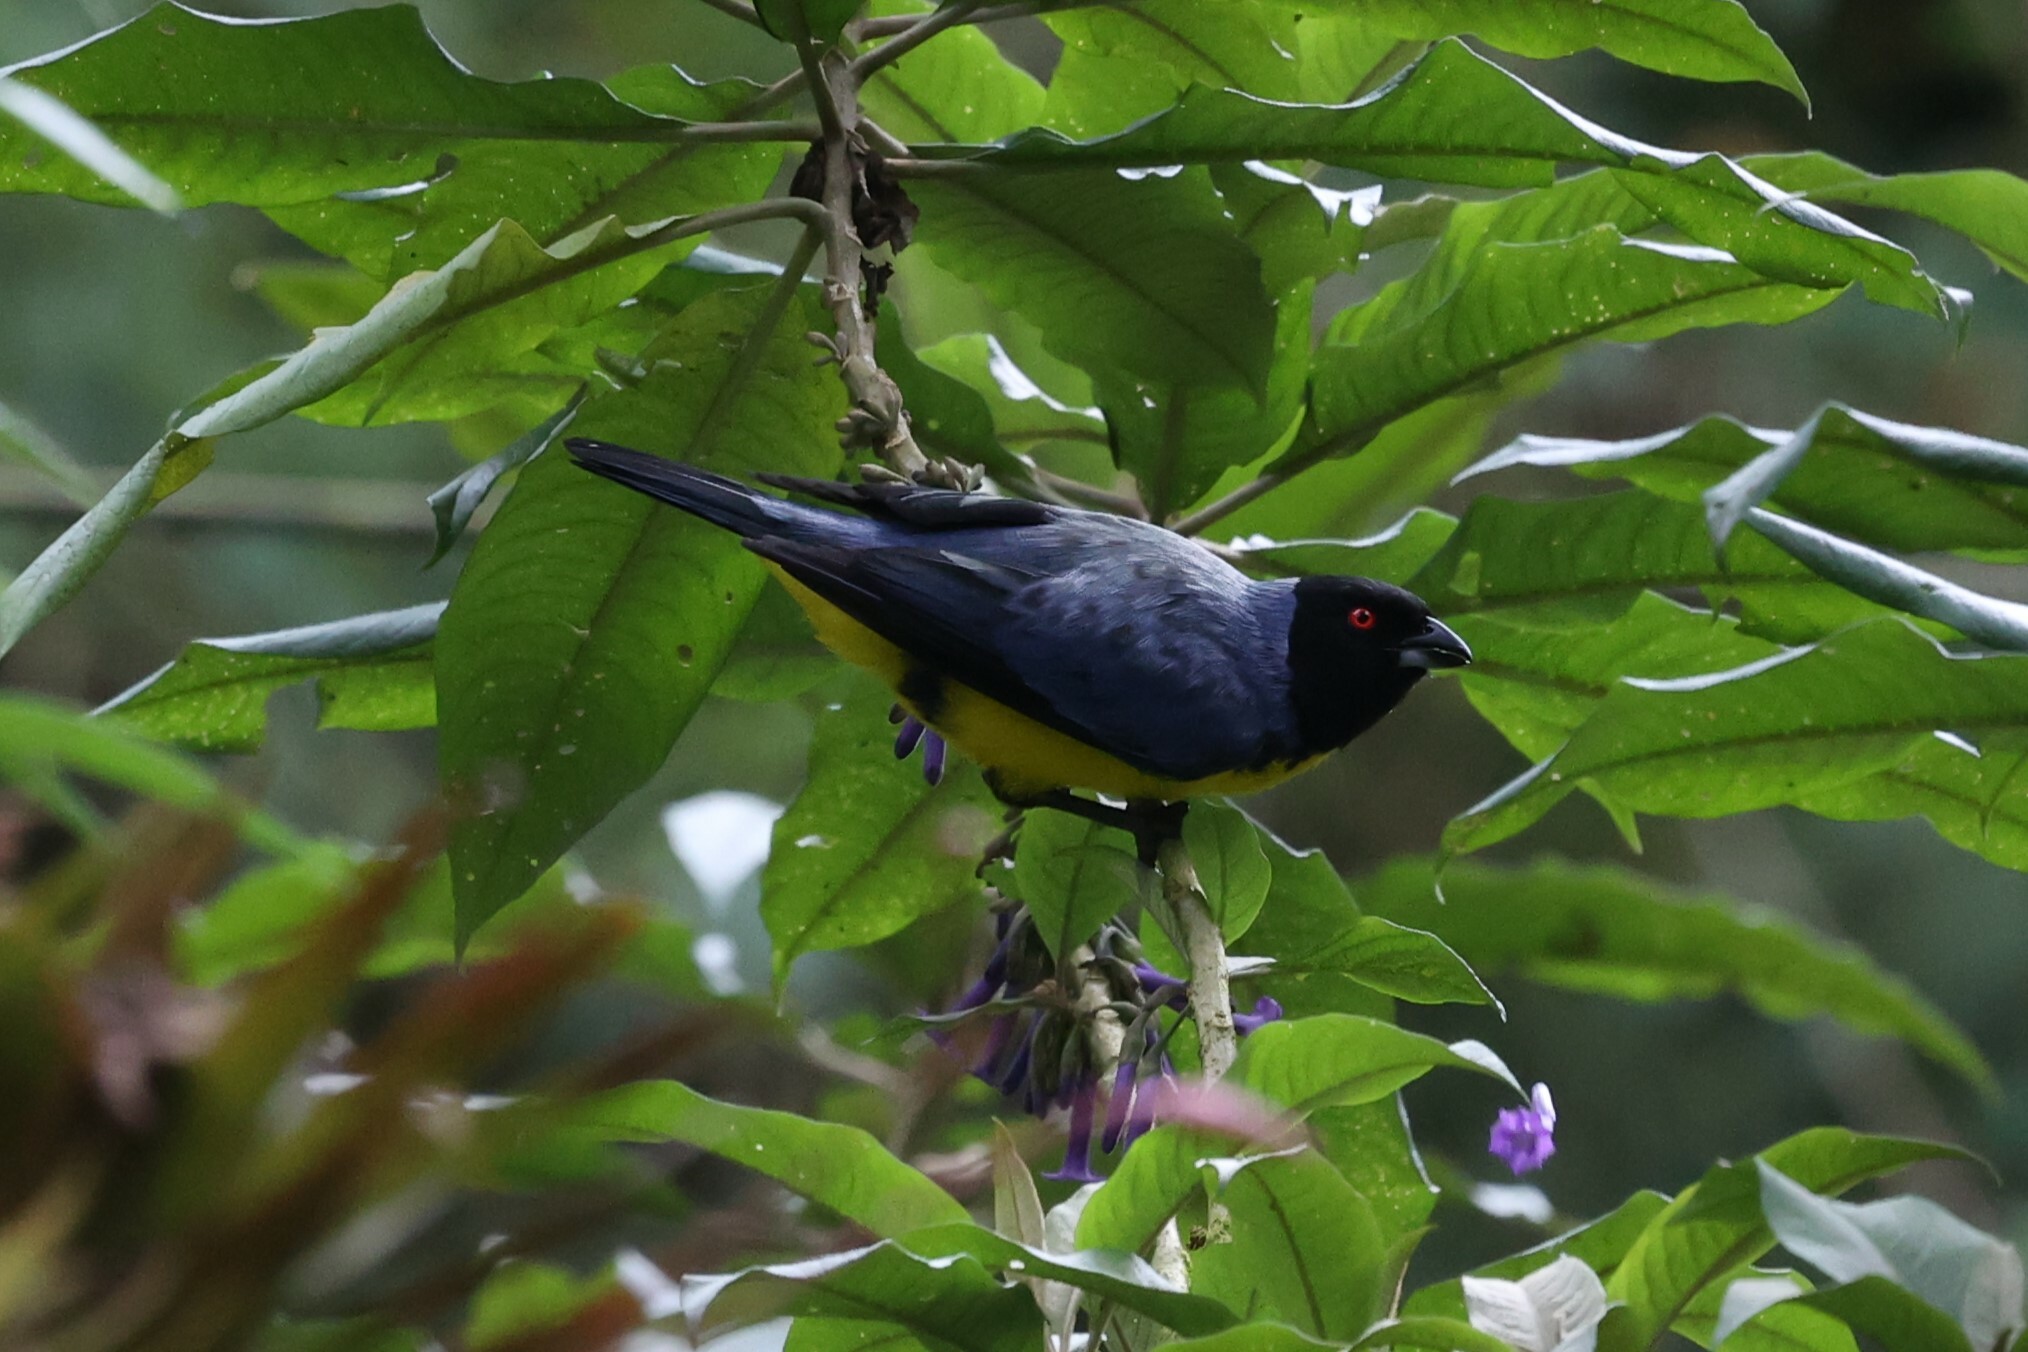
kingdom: Animalia
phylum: Chordata
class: Aves
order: Passeriformes
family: Thraupidae
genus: Buthraupis
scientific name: Buthraupis montana
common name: Hooded mountain tanager
